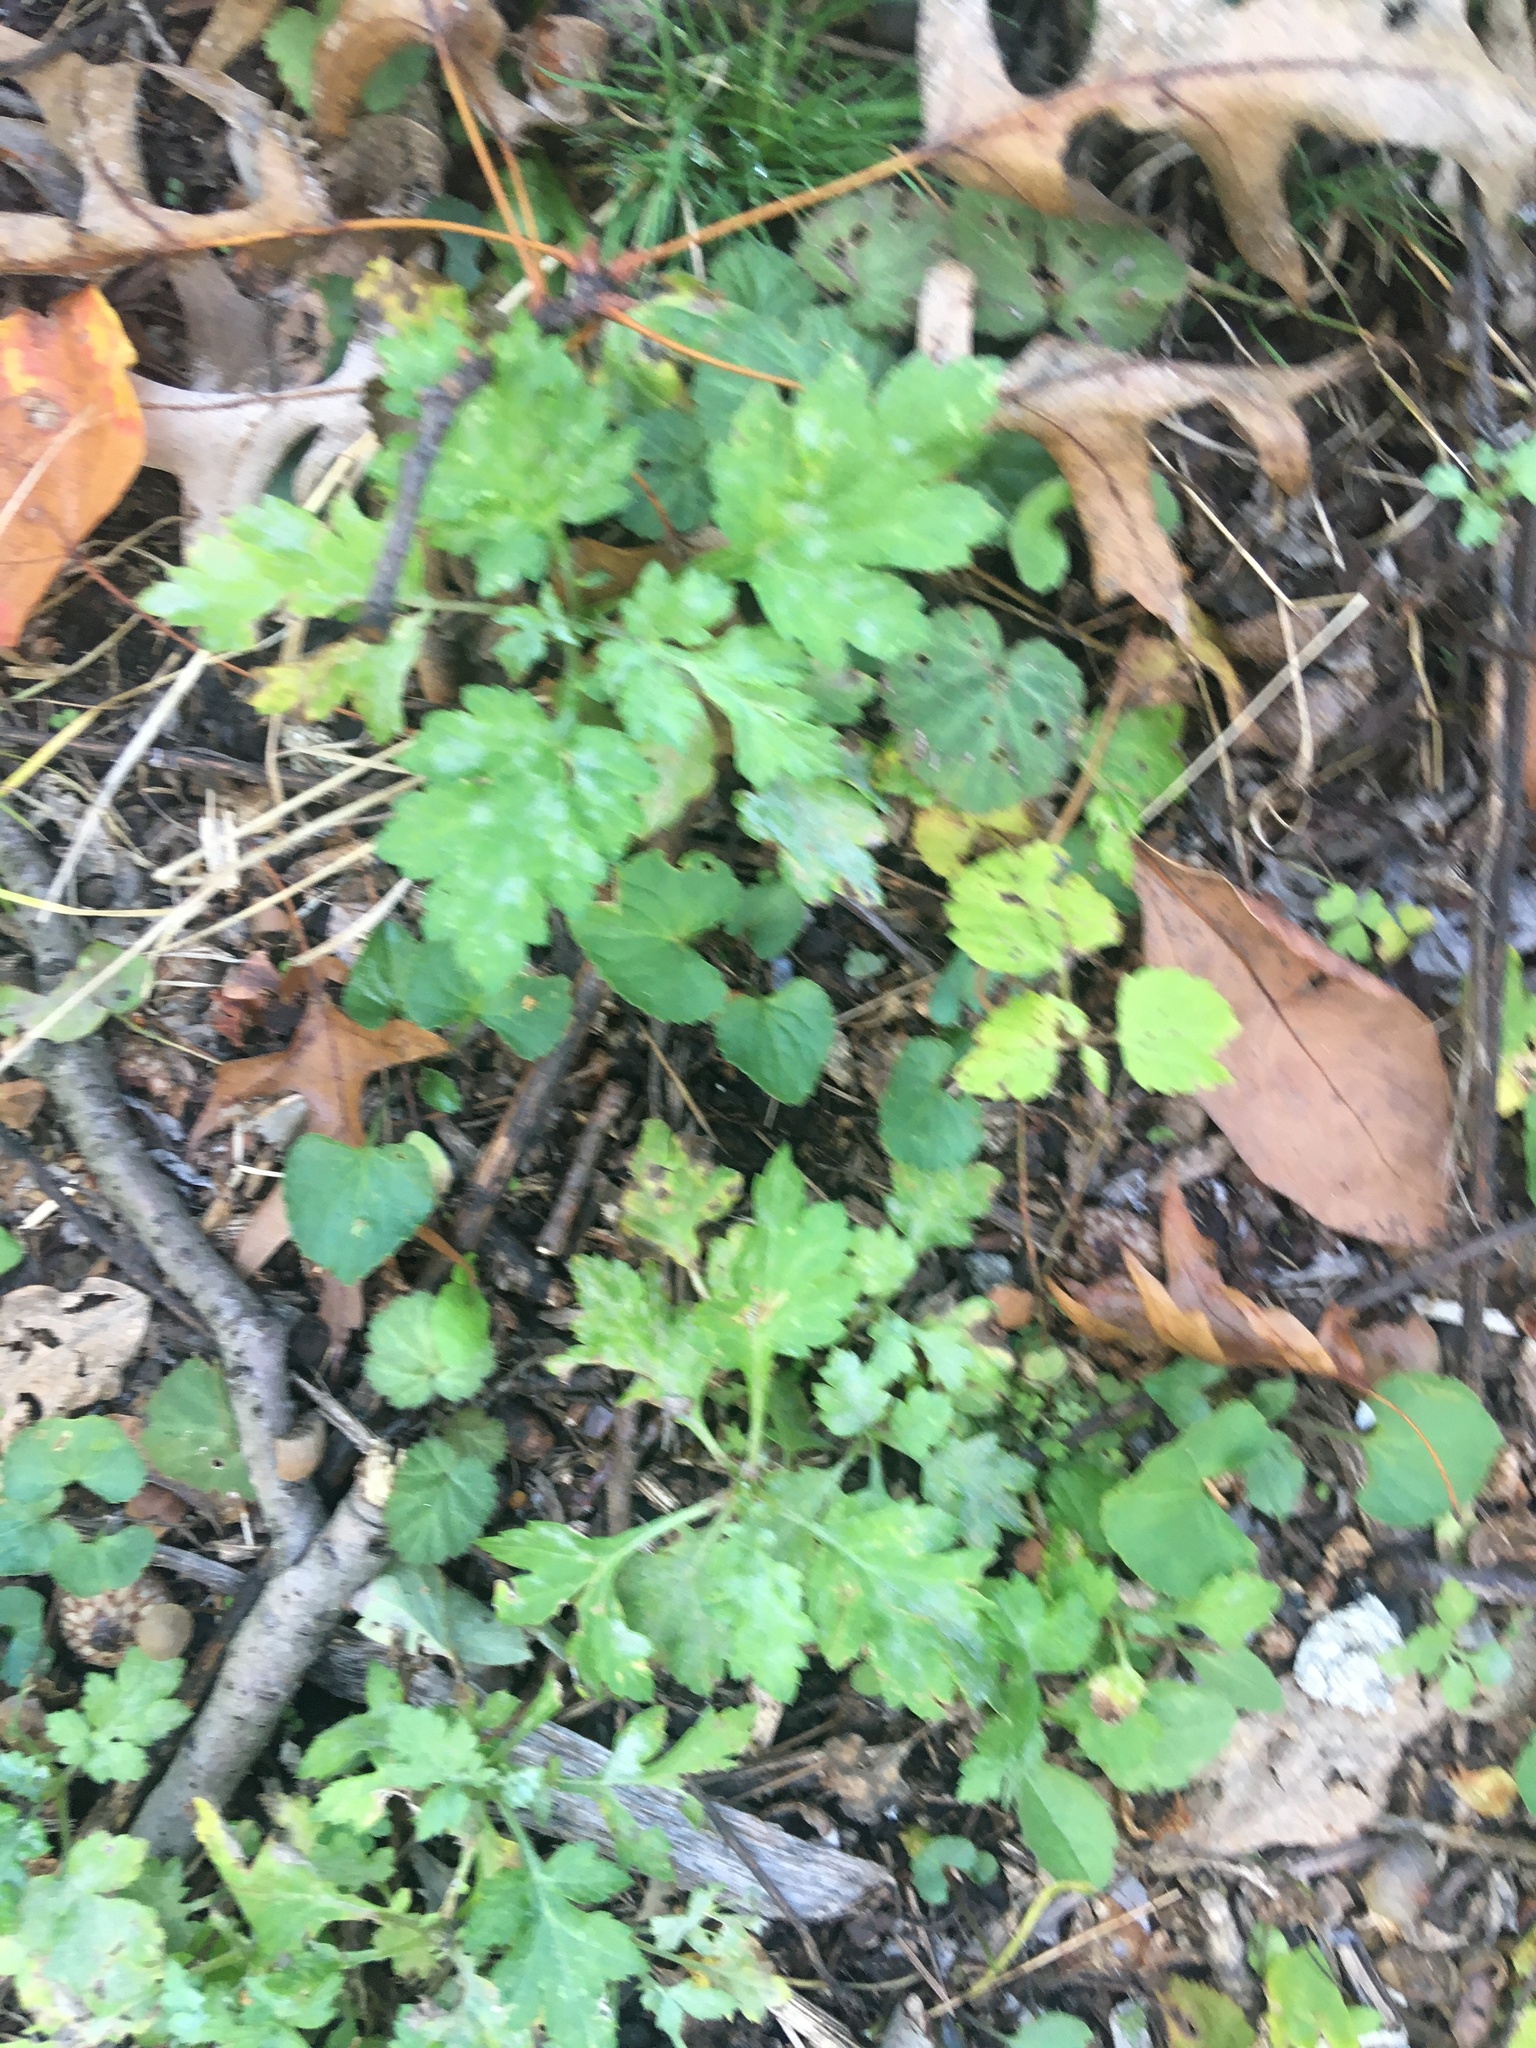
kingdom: Plantae
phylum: Tracheophyta
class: Magnoliopsida
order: Asterales
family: Asteraceae
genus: Artemisia
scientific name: Artemisia vulgaris
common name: Mugwort
